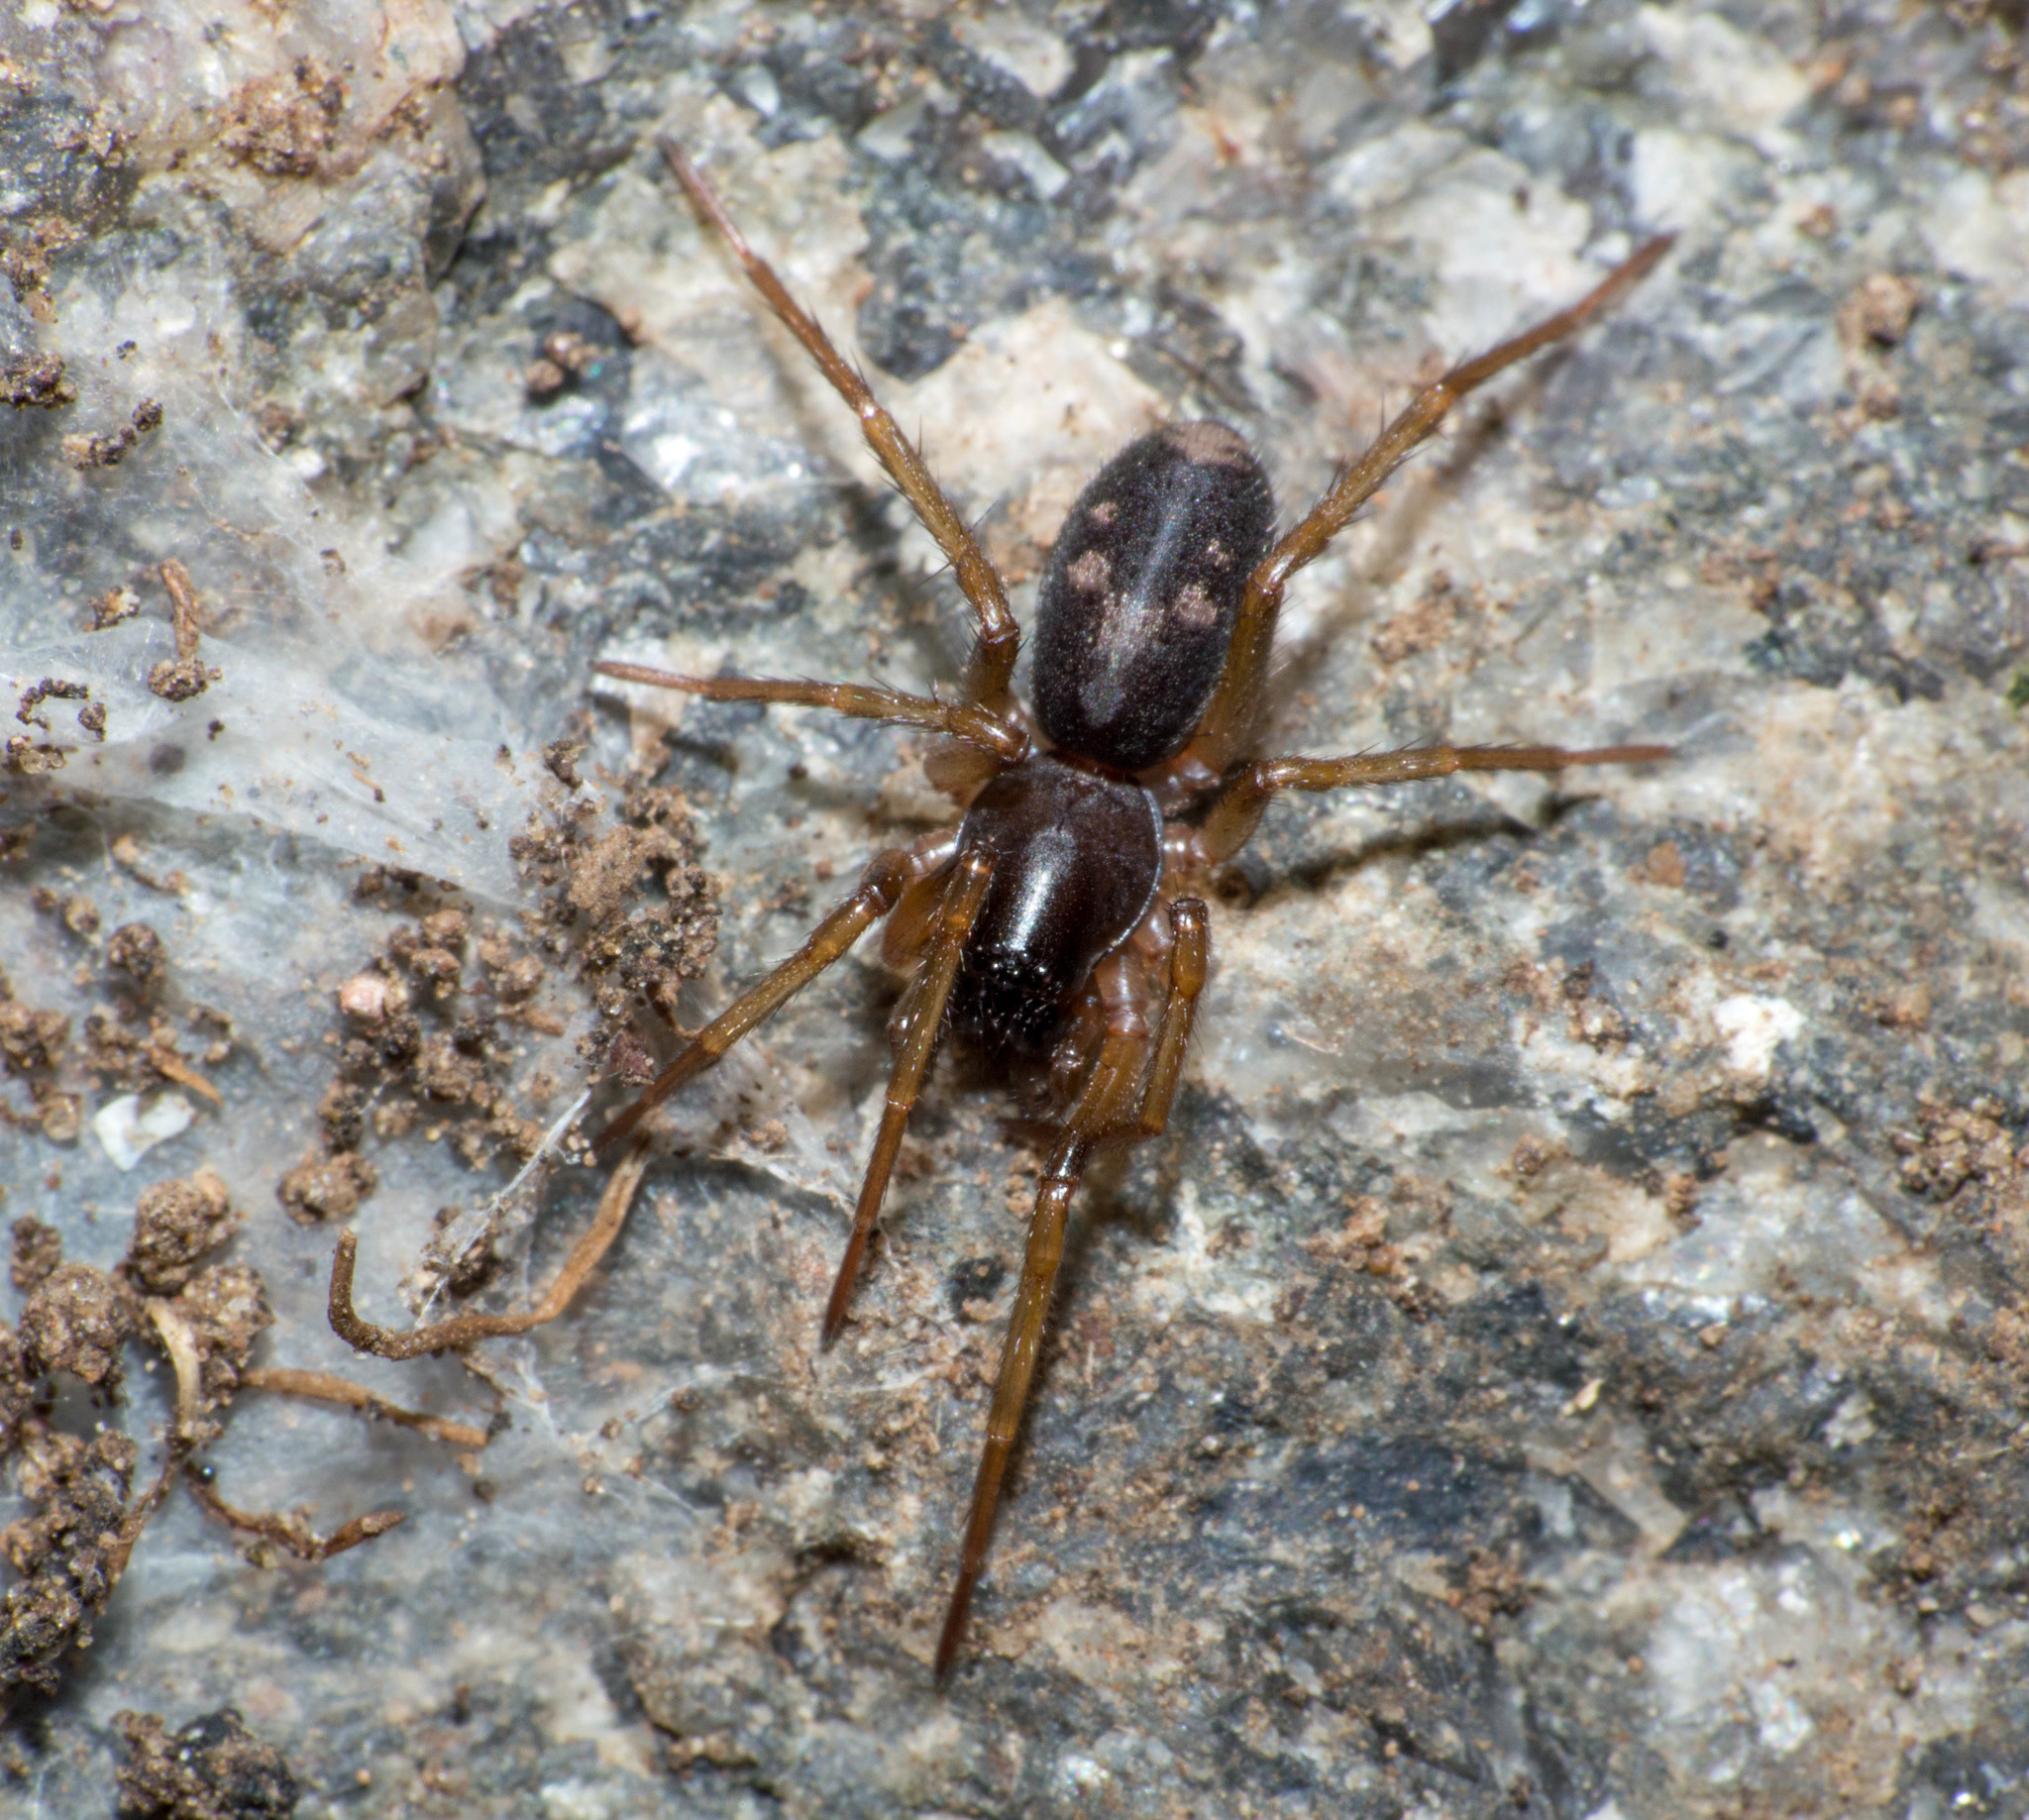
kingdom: Animalia
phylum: Arthropoda
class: Arachnida
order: Araneae
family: Corinnidae
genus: Falconina
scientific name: Falconina gracilis
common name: Antmimic spider
